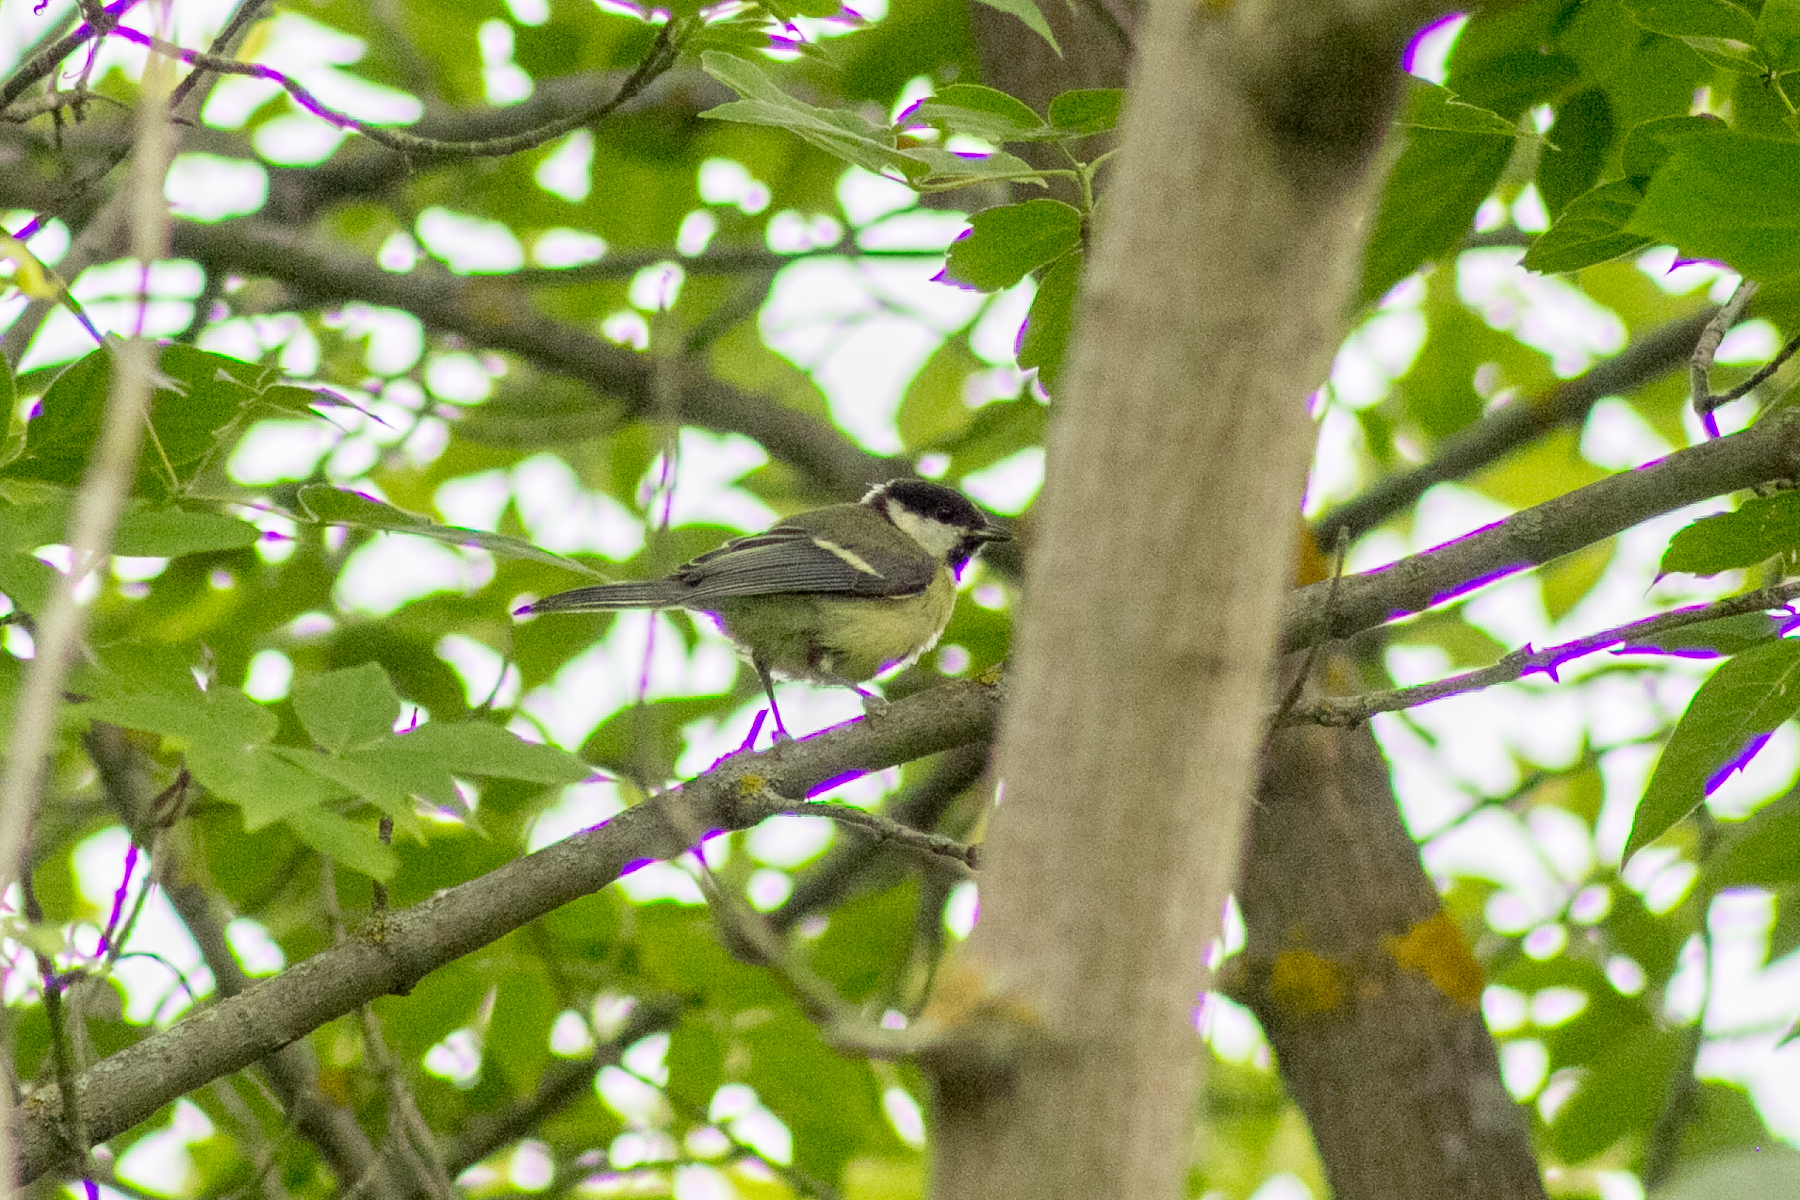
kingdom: Animalia
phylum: Chordata
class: Aves
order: Passeriformes
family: Paridae
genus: Parus
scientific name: Parus major
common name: Great tit
